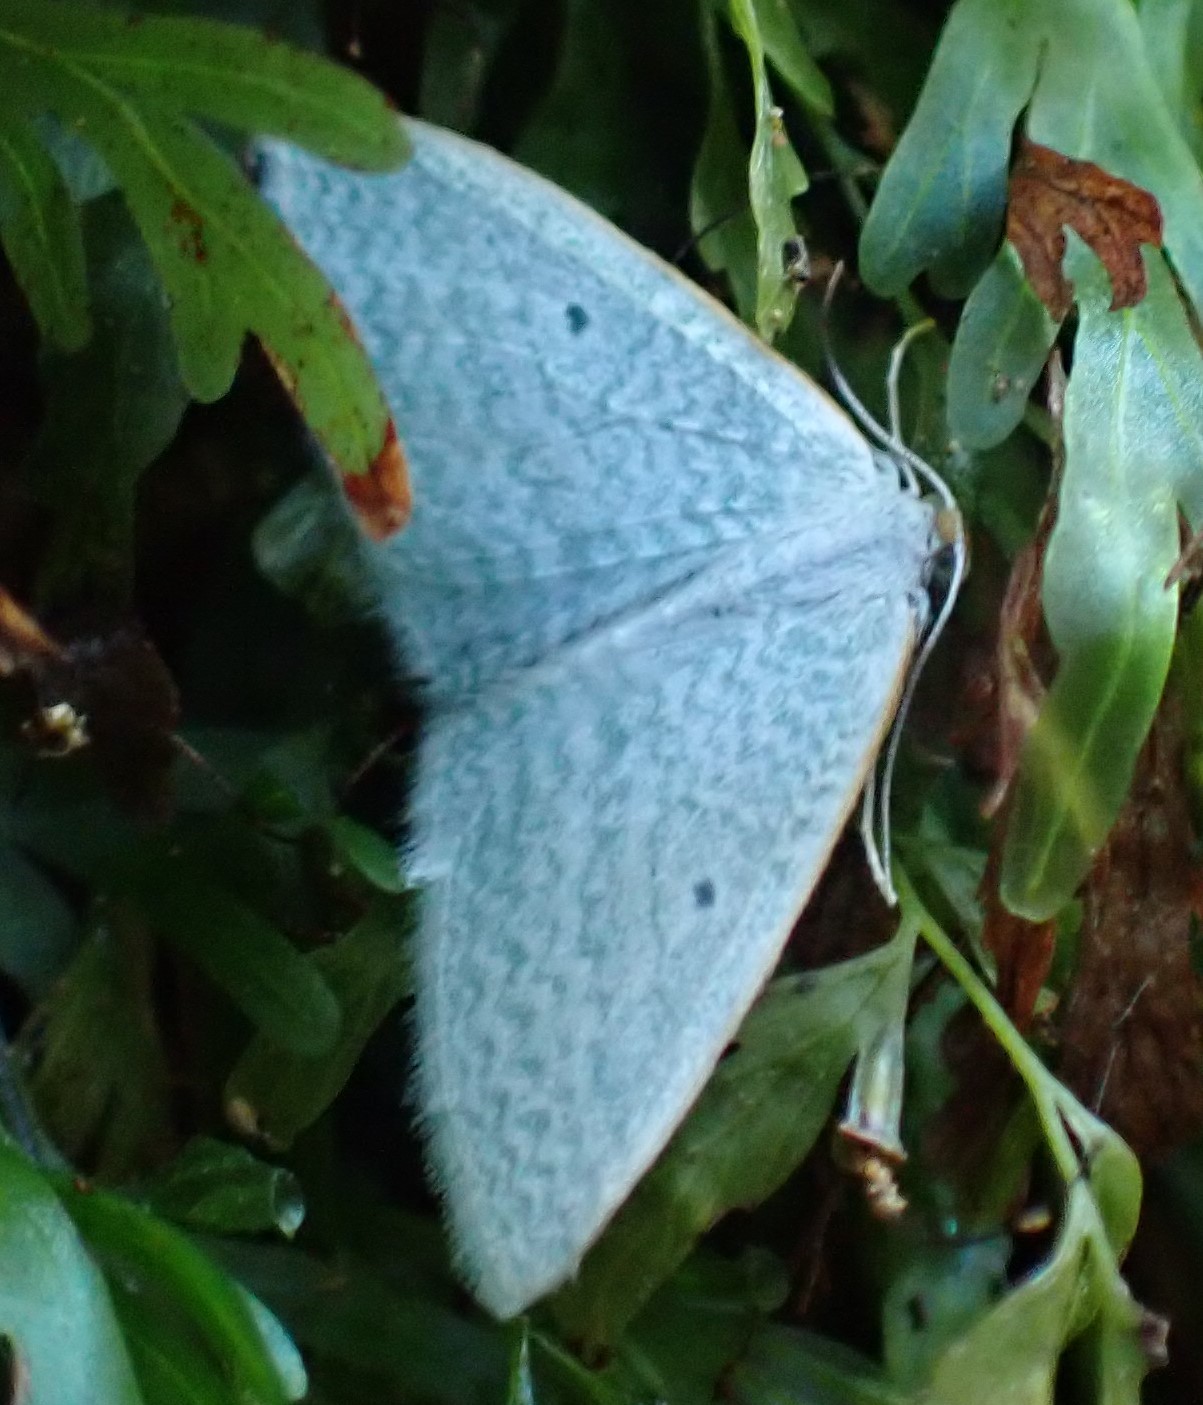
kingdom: Animalia
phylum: Arthropoda
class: Insecta
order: Lepidoptera
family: Geometridae
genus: Poecilasthena
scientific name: Poecilasthena fragilis
